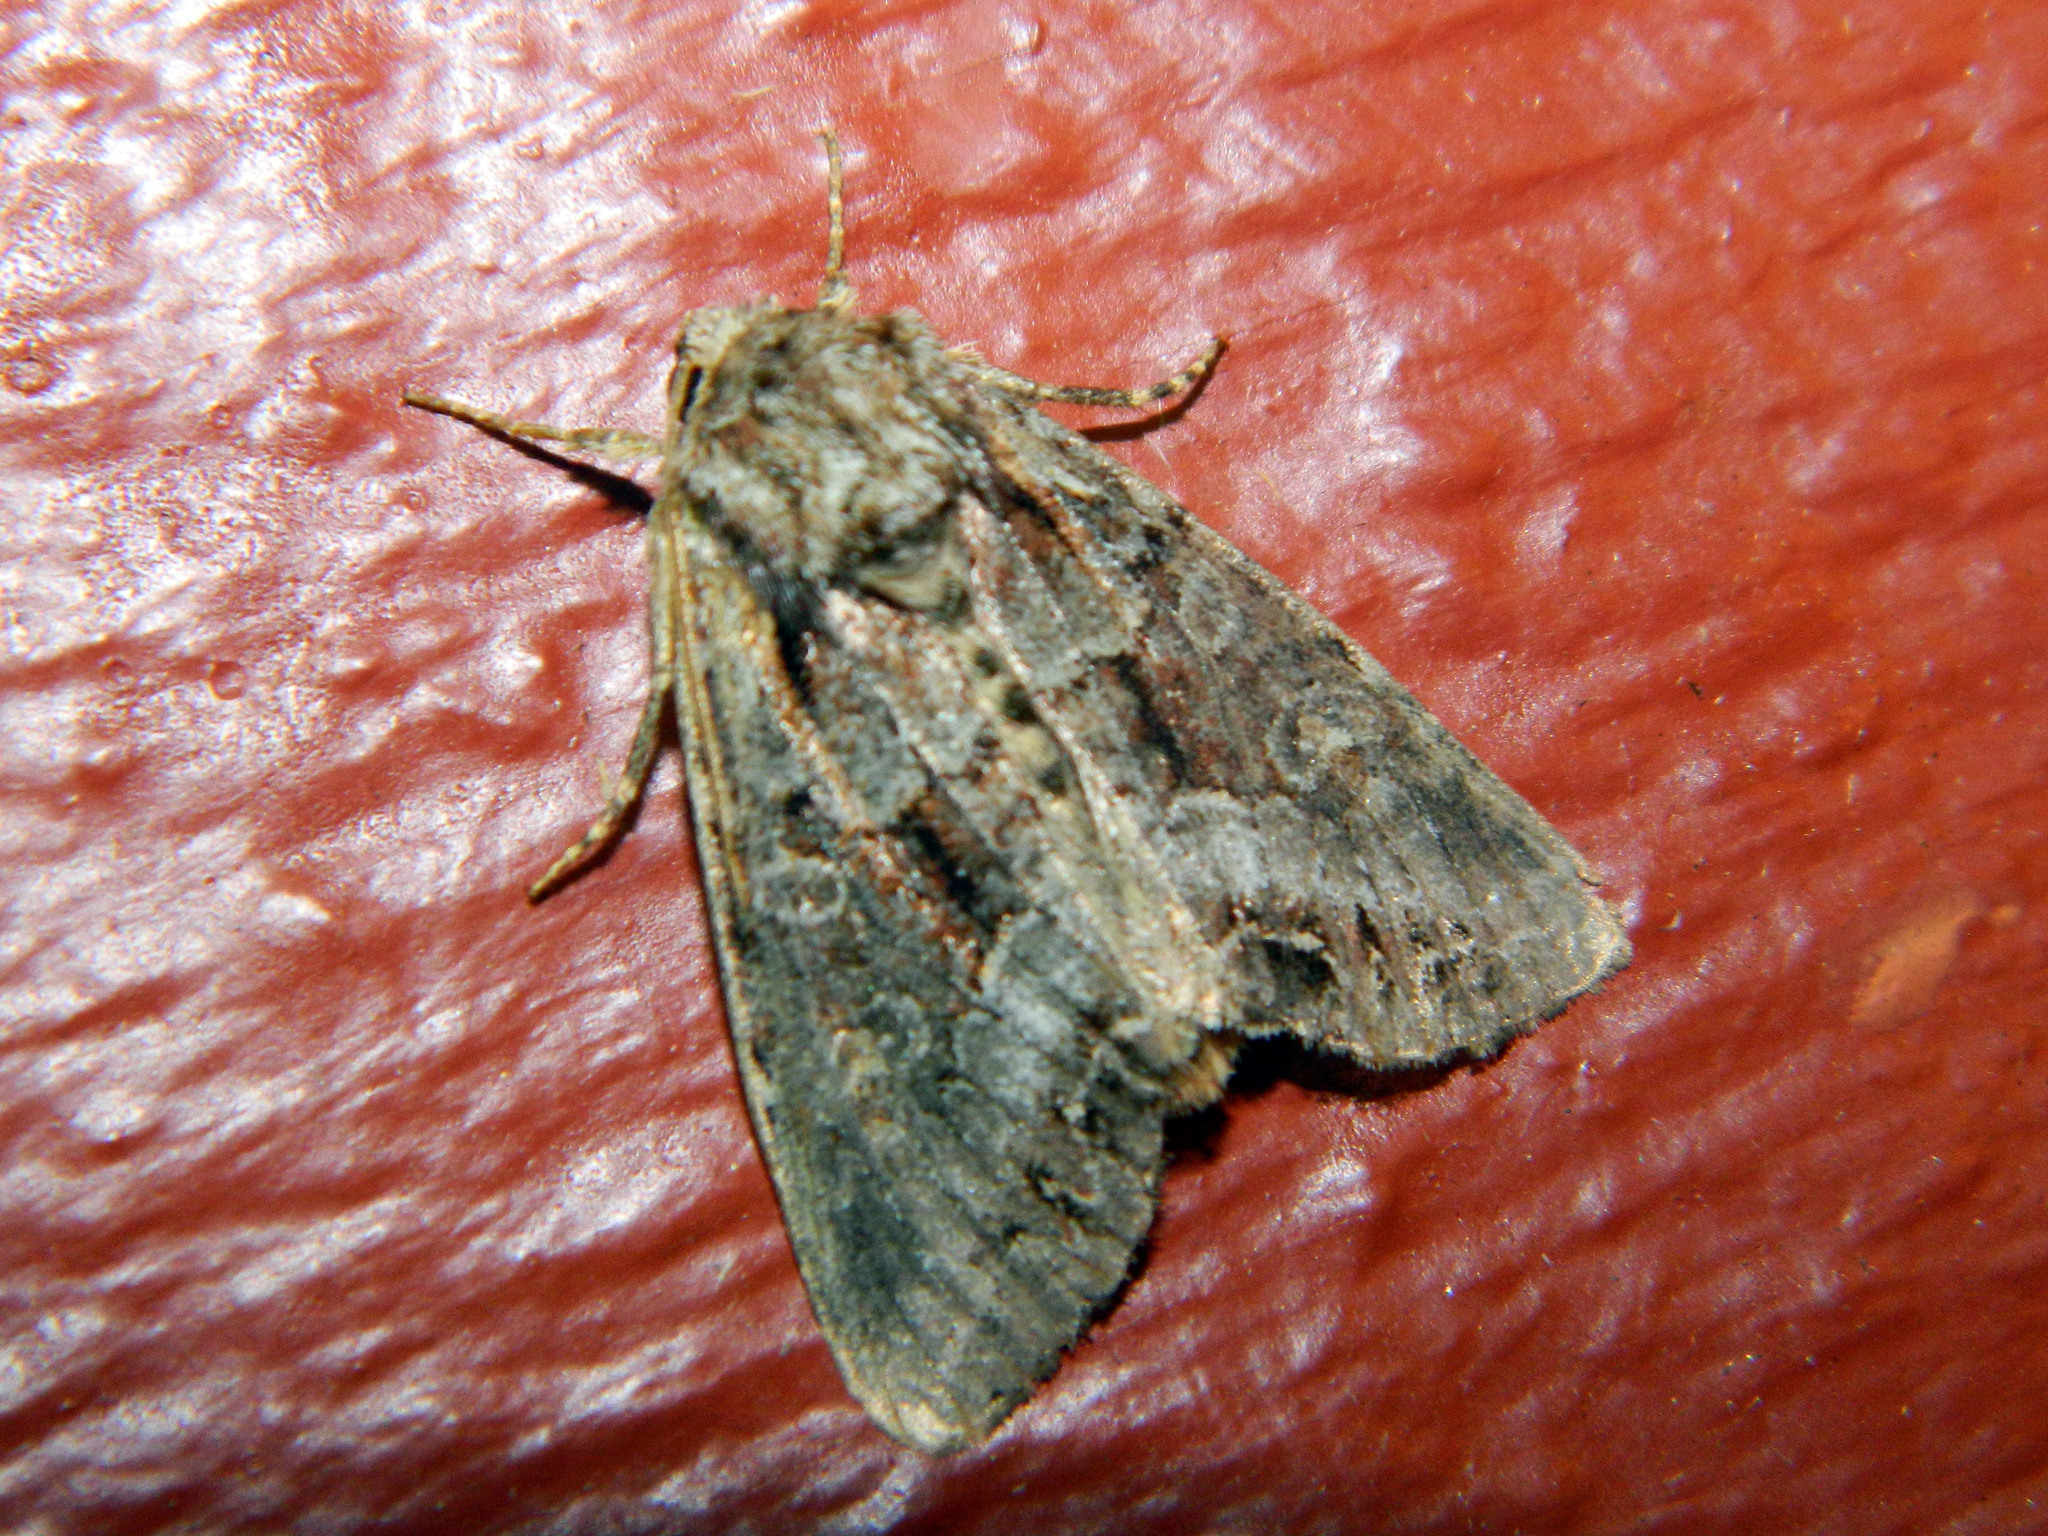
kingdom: Animalia
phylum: Arthropoda
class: Insecta
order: Lepidoptera
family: Noctuidae
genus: Lacanobia
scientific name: Lacanobia grandis
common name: Grand arches moth
